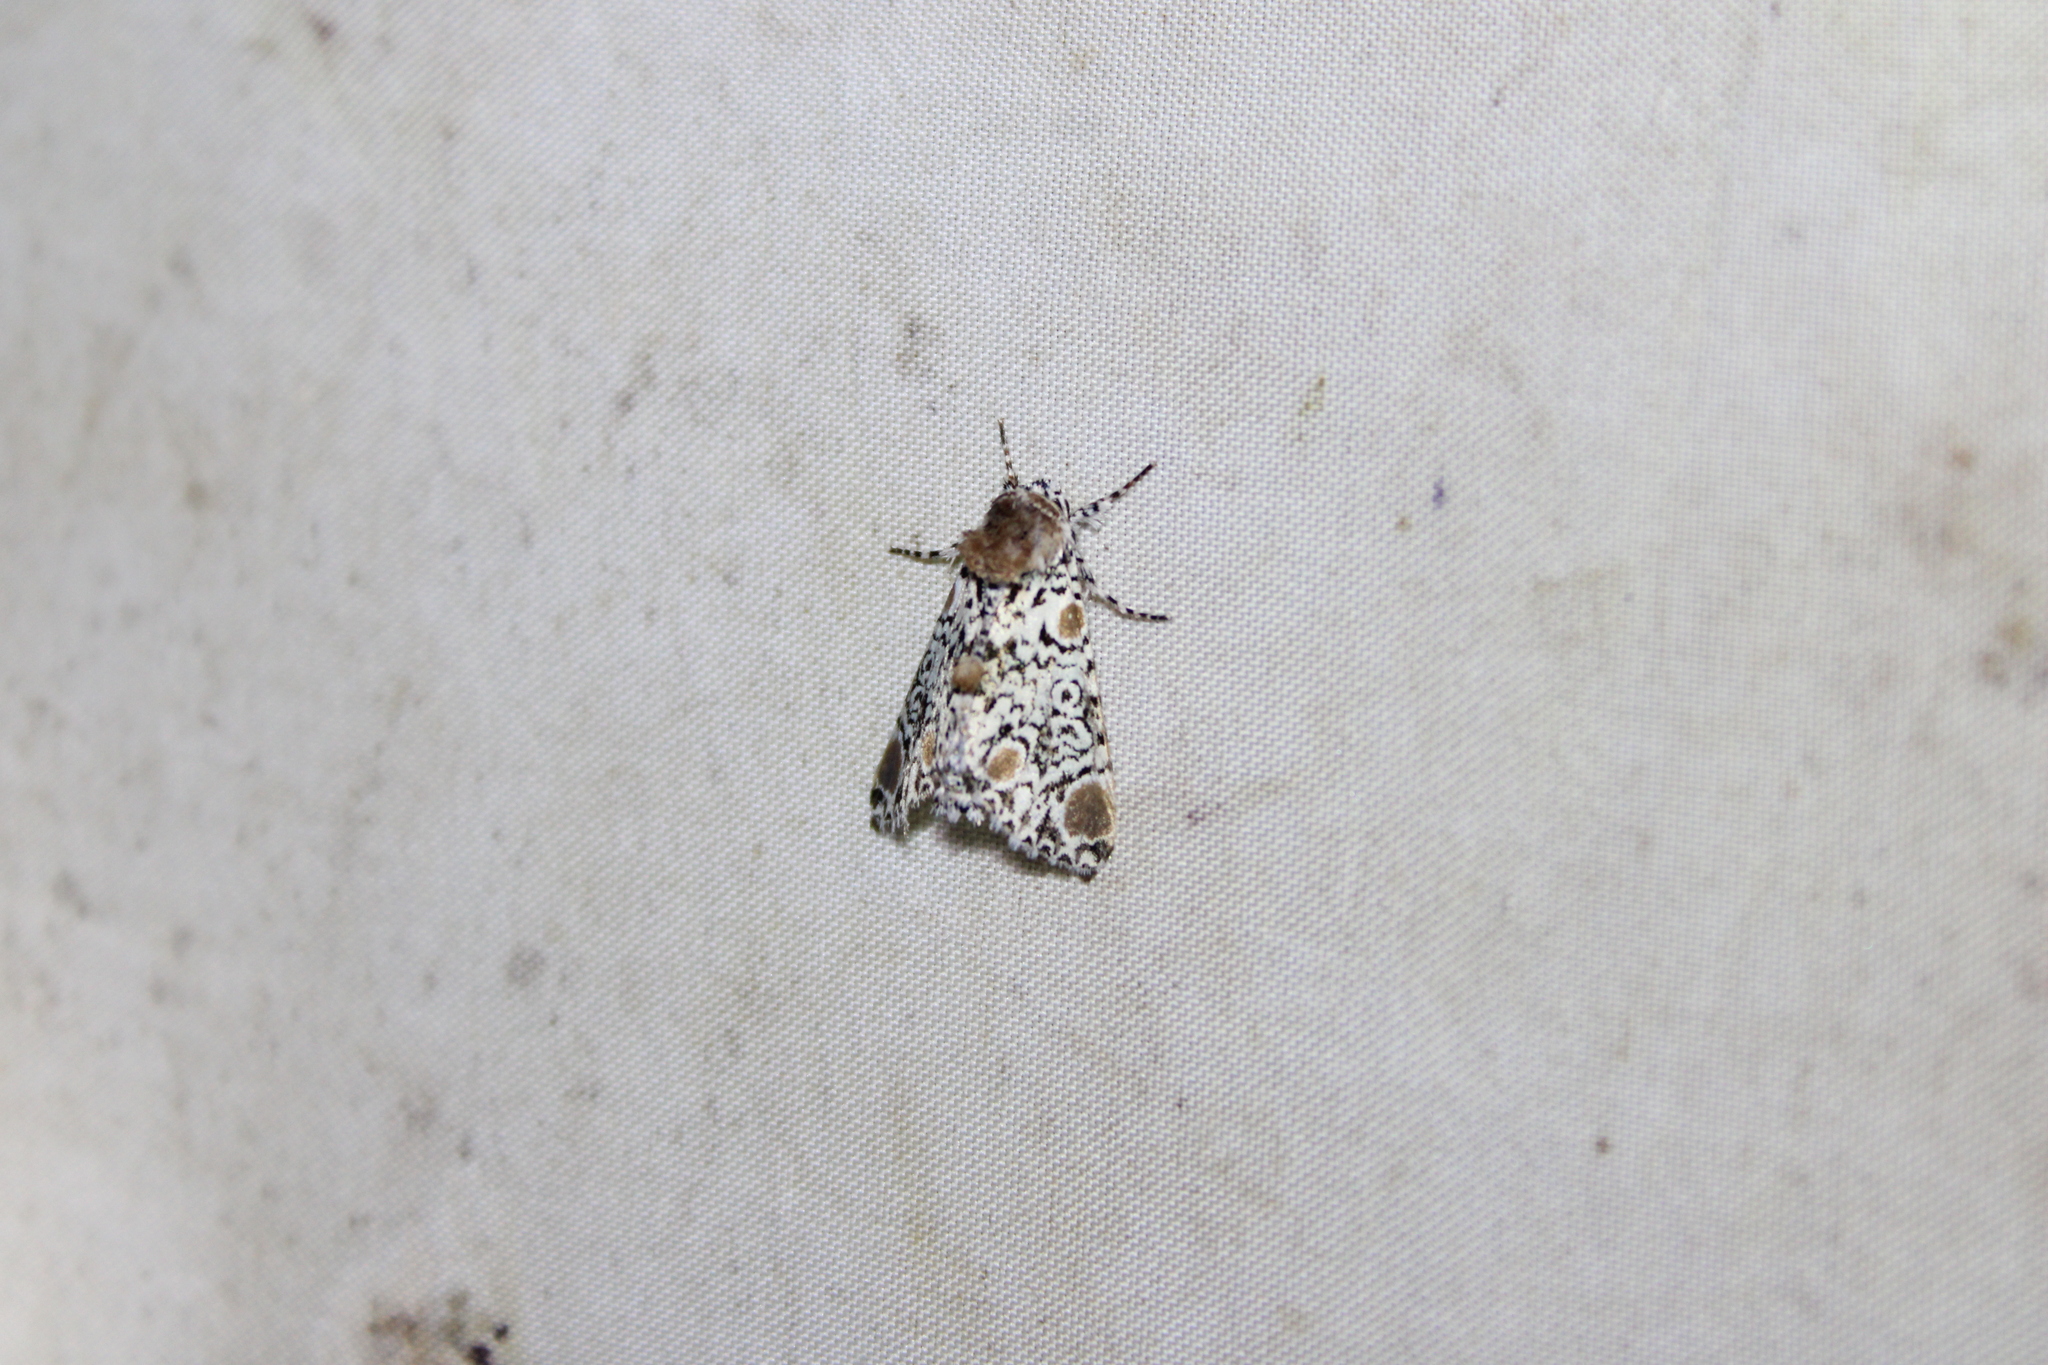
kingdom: Animalia
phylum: Arthropoda
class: Insecta
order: Lepidoptera
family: Noctuidae
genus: Harrisimemna
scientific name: Harrisimemna trisignata
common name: Harris threespot
